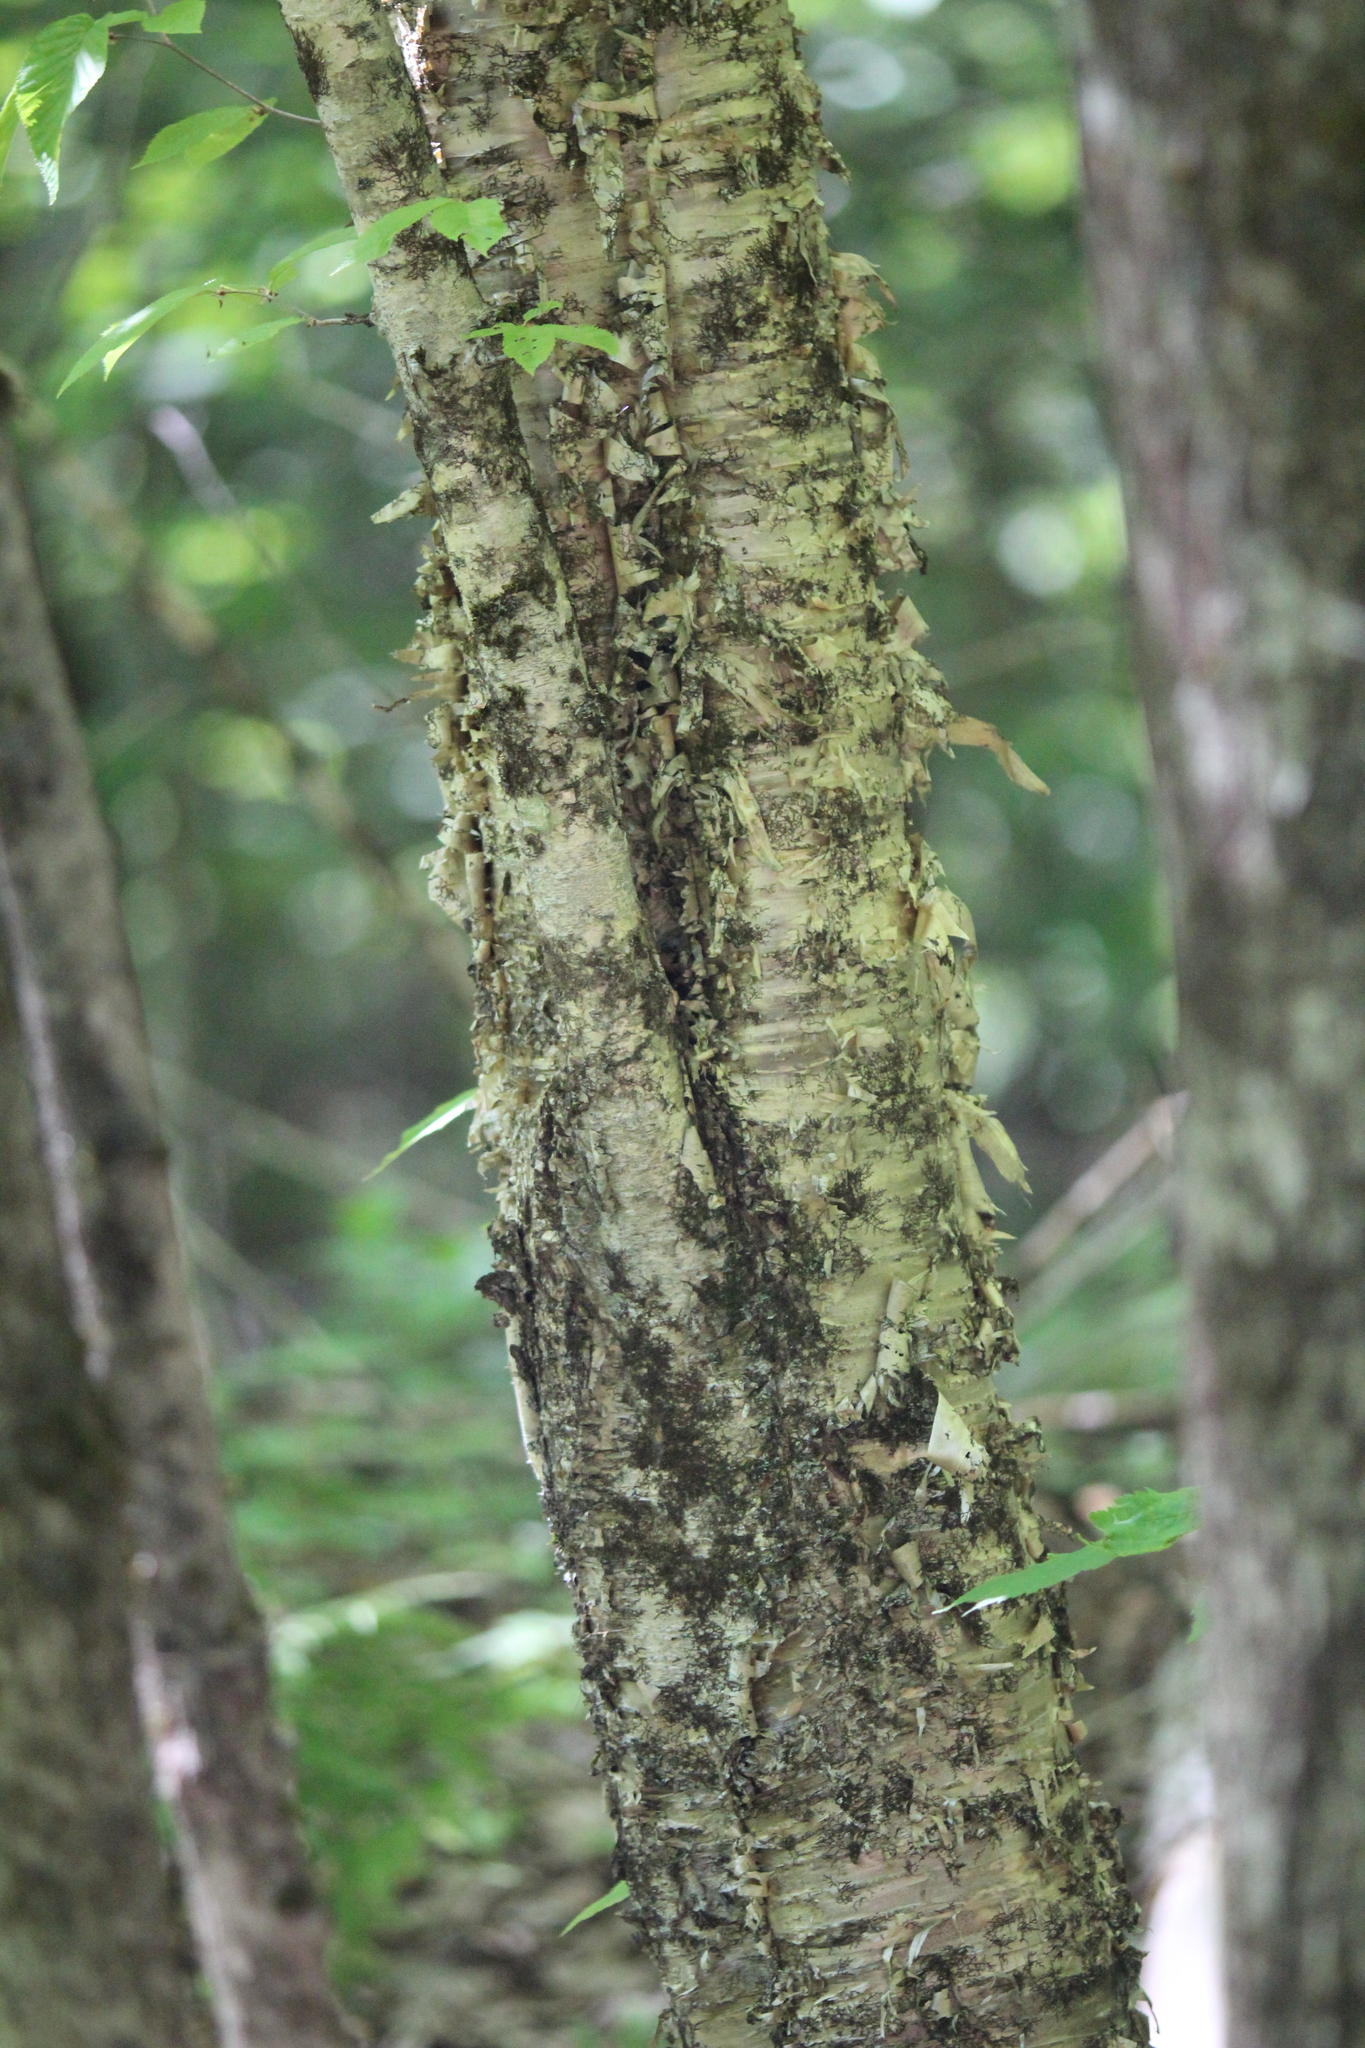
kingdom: Plantae
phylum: Tracheophyta
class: Magnoliopsida
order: Fagales
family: Betulaceae
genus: Betula
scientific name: Betula alleghaniensis
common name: Yellow birch
